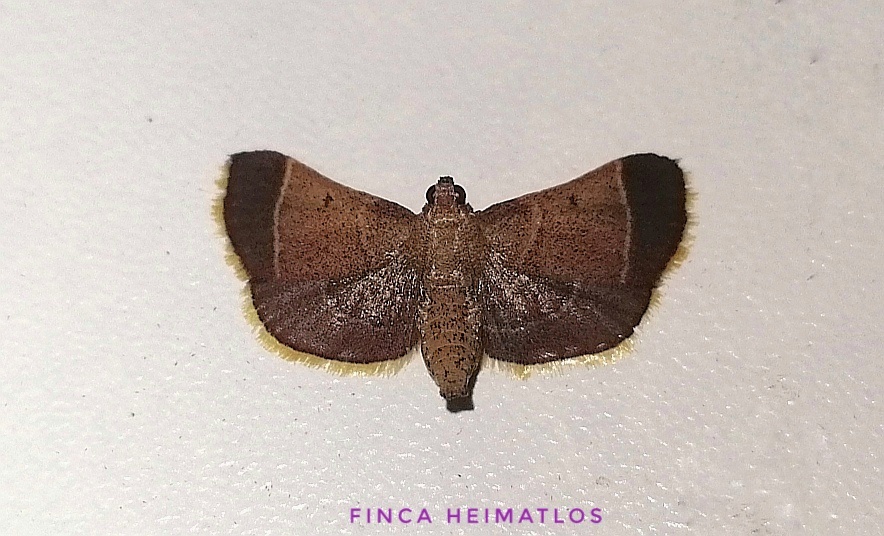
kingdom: Animalia
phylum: Arthropoda
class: Insecta
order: Lepidoptera
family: Pyralidae
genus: Hypsopygia
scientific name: Hypsopygia amoenalis
